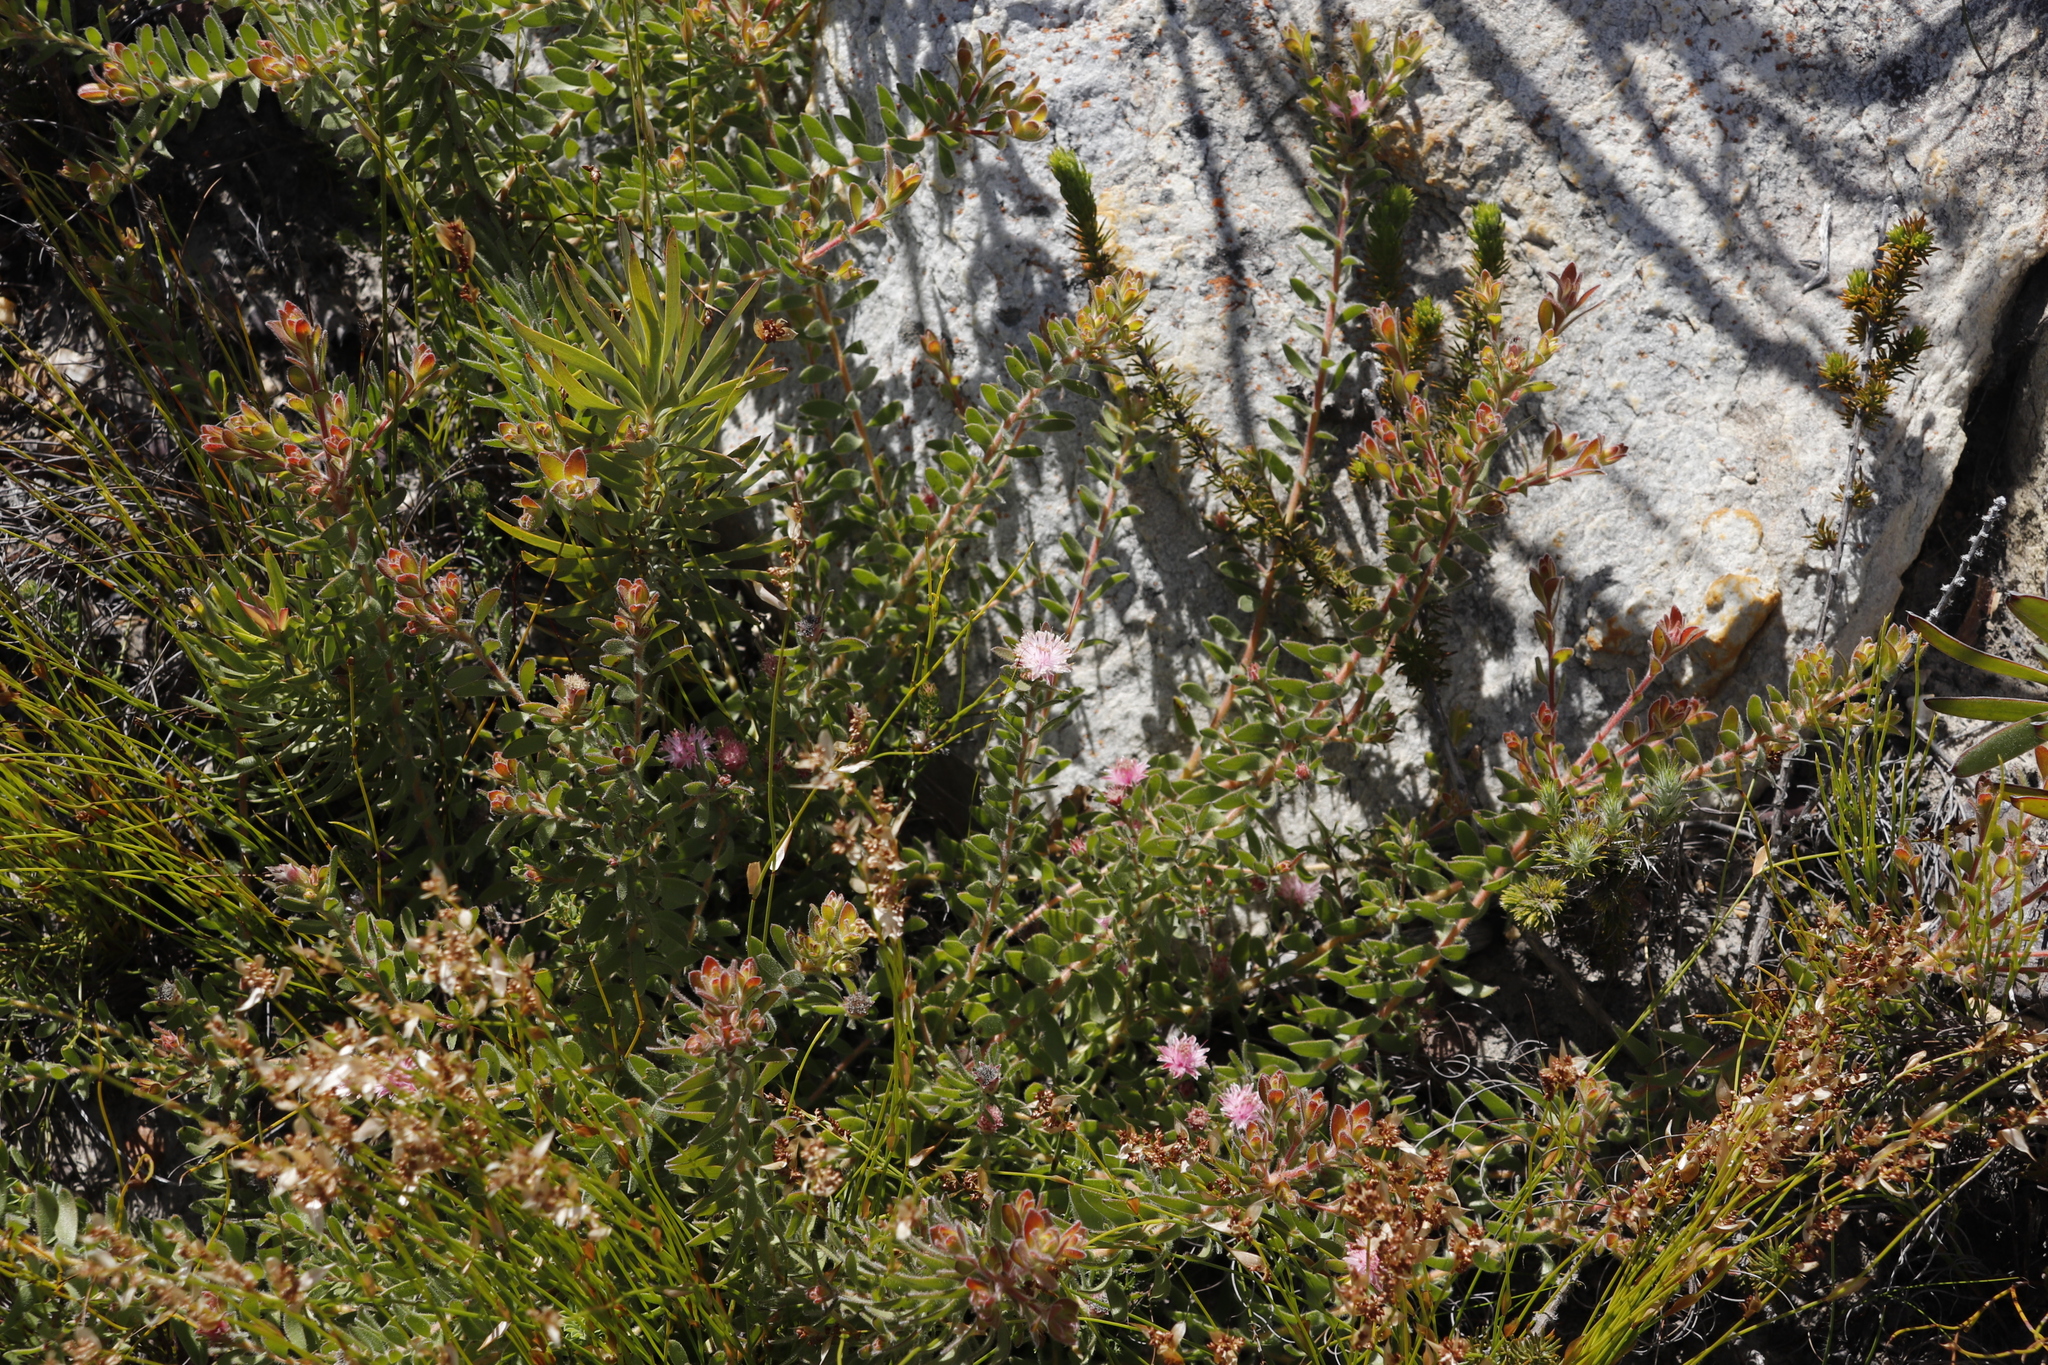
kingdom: Plantae
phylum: Tracheophyta
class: Magnoliopsida
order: Proteales
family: Proteaceae
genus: Diastella
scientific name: Diastella divaricata
